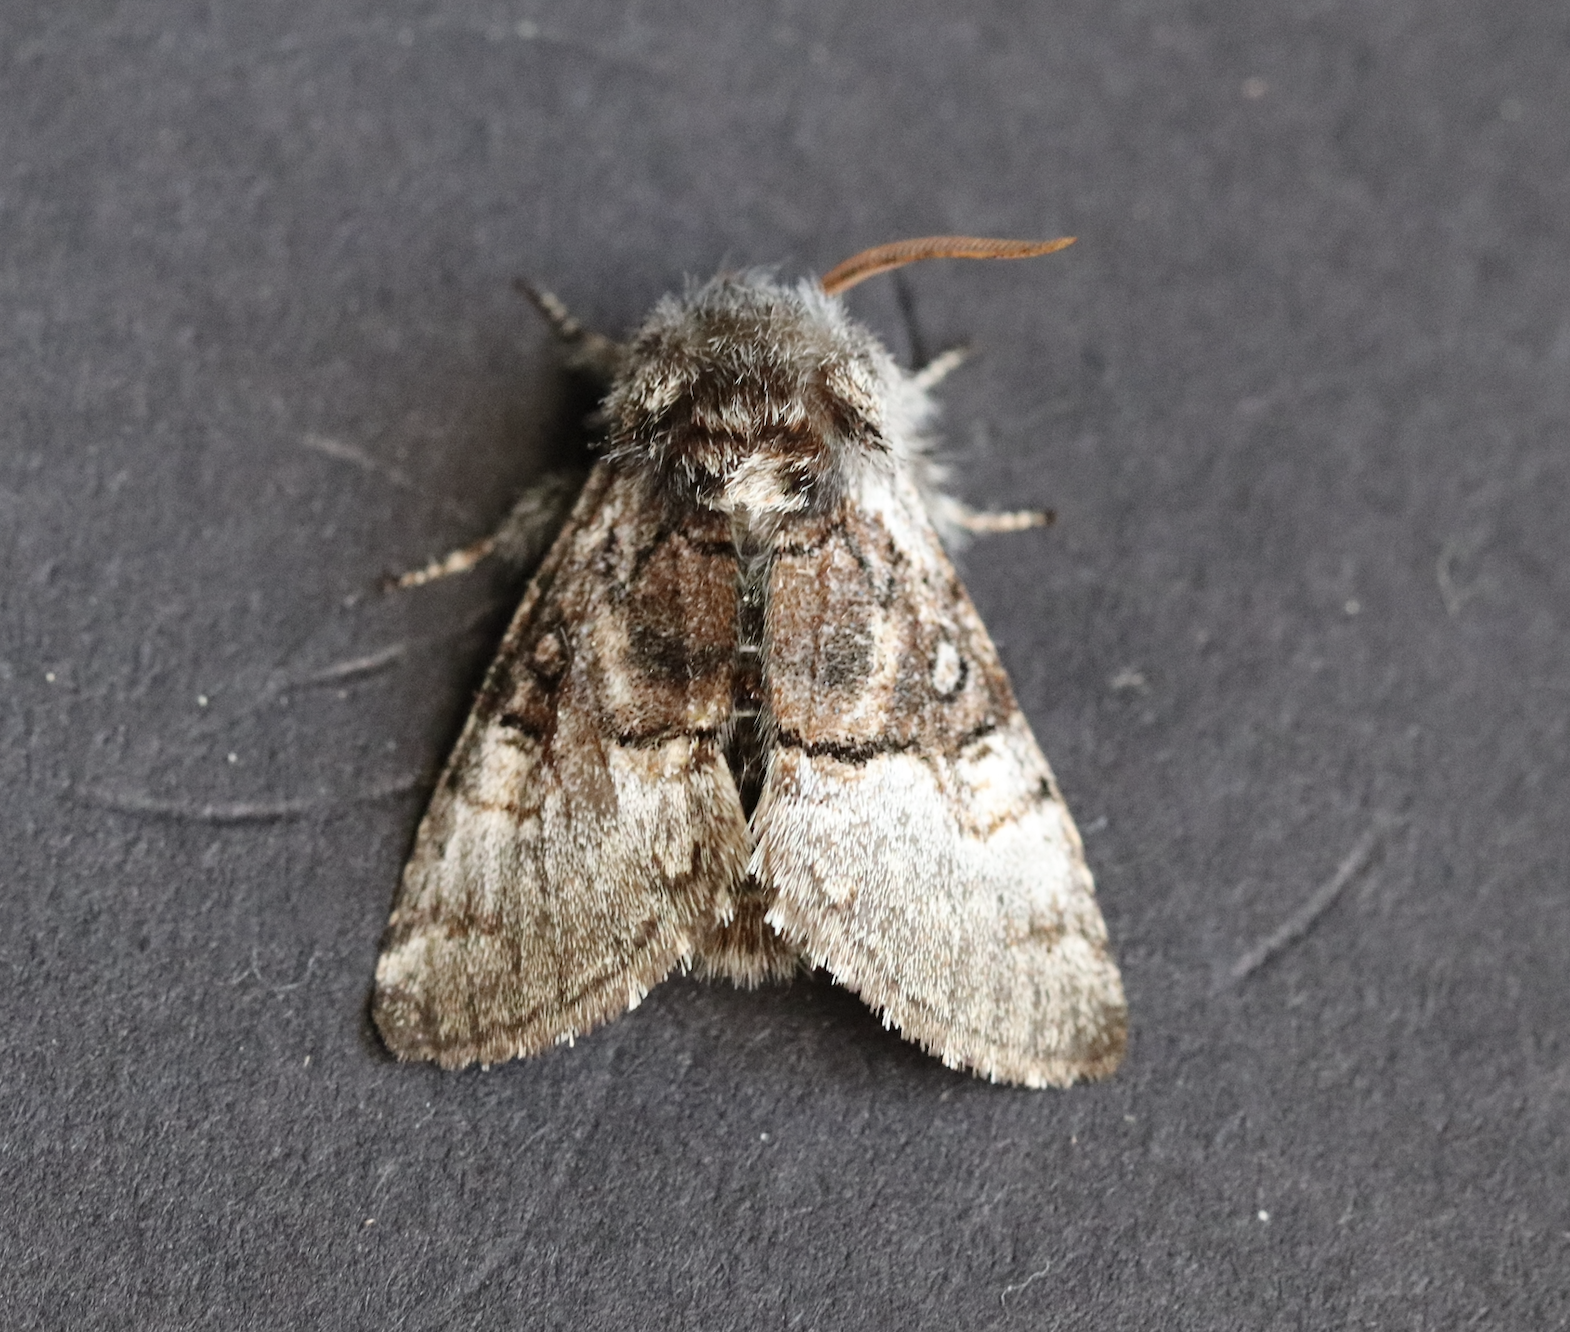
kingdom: Animalia
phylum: Arthropoda
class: Insecta
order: Lepidoptera
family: Noctuidae
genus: Colocasia
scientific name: Colocasia coryli
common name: Nut-tree tussock
